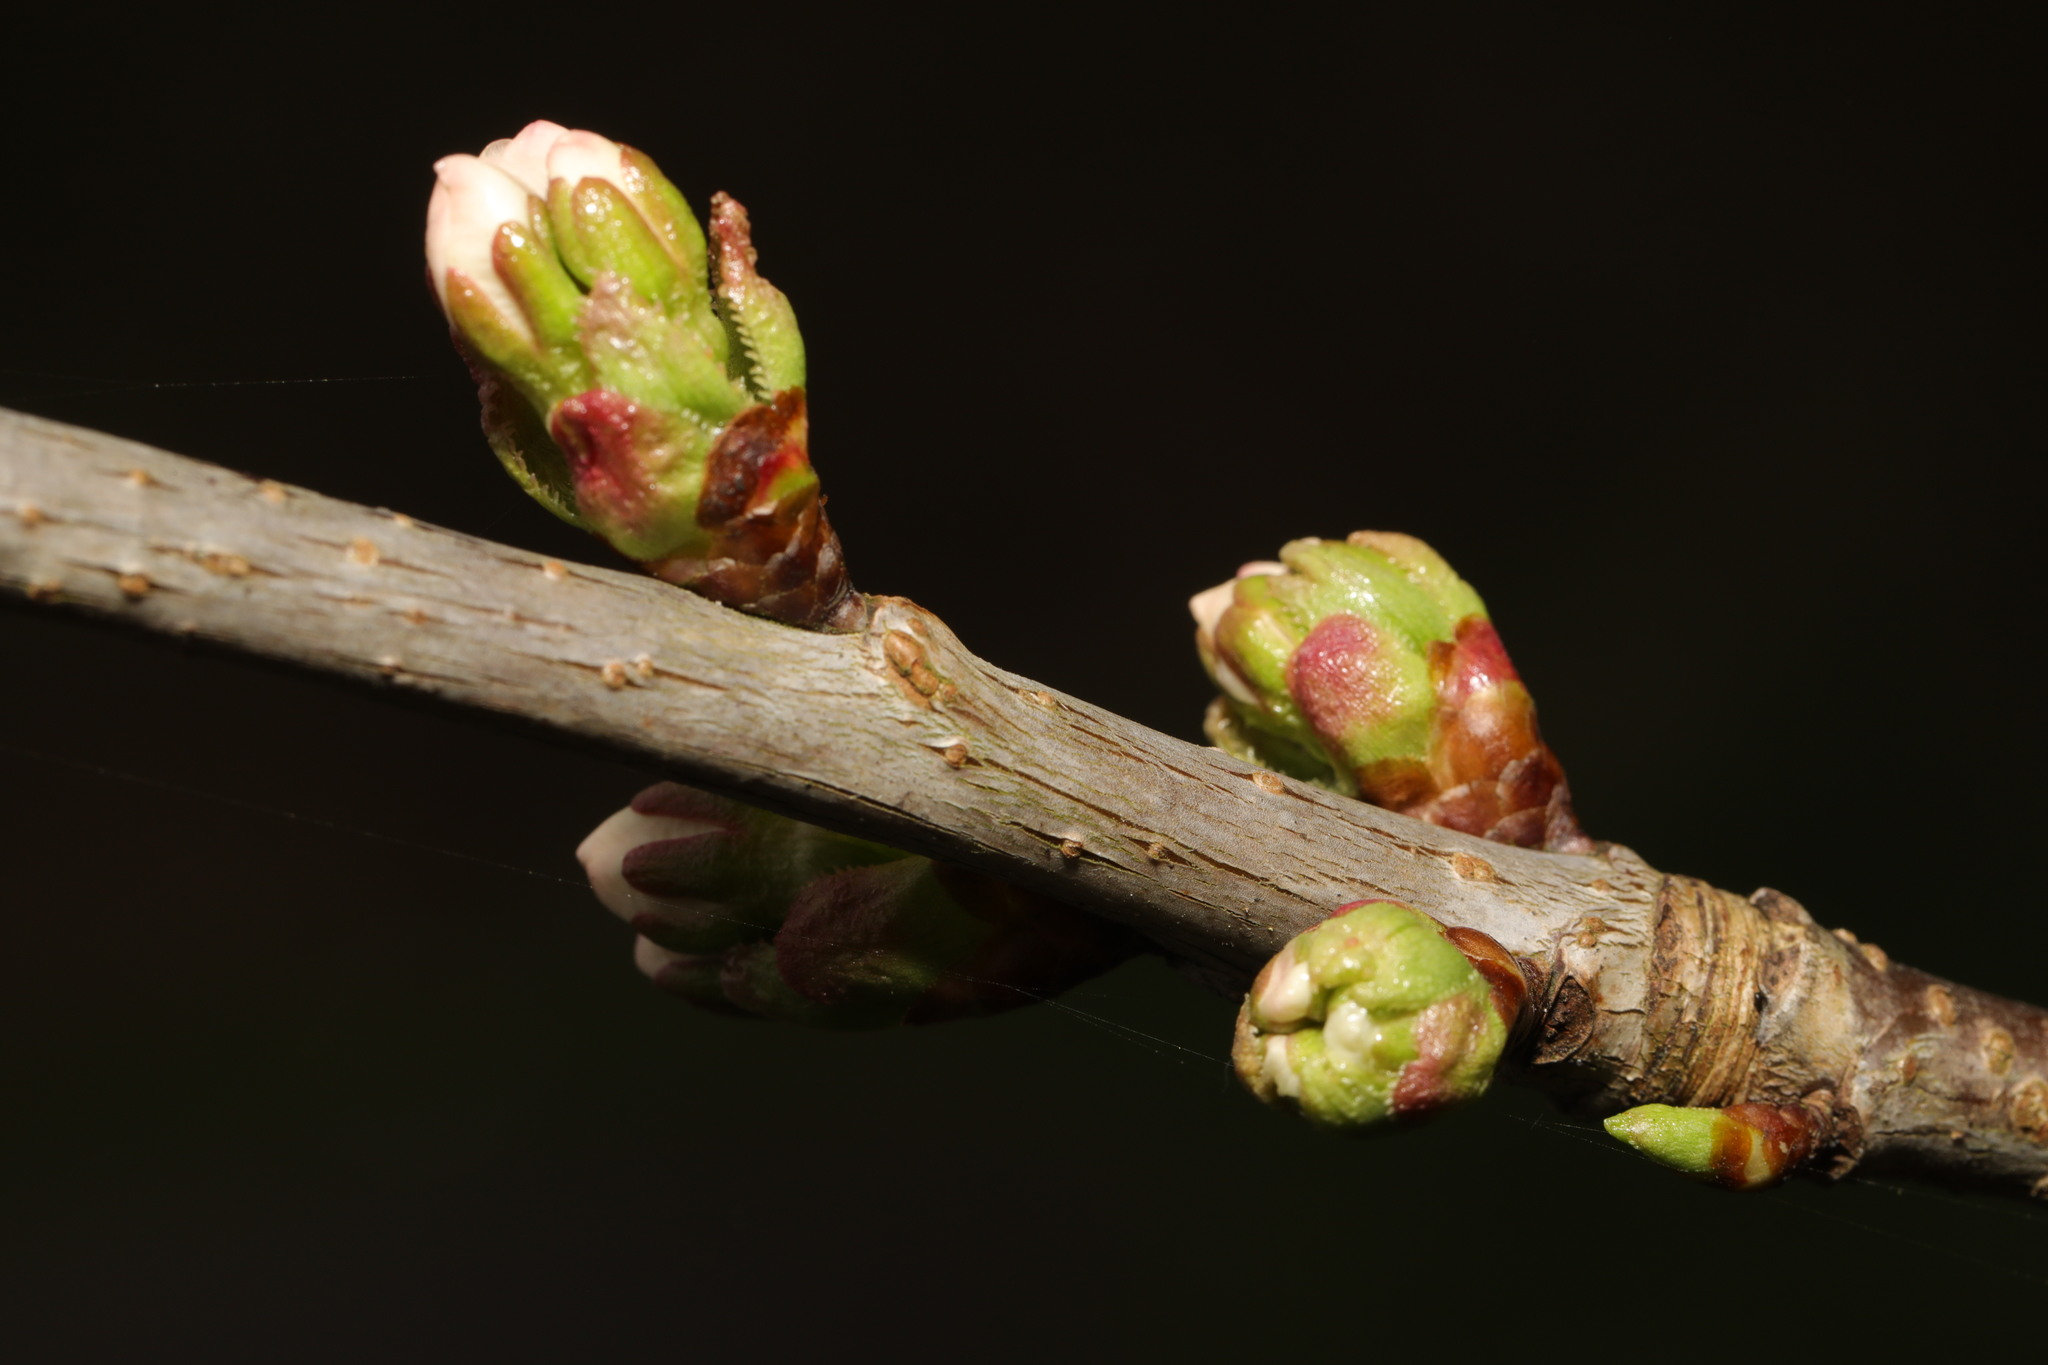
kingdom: Plantae
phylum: Tracheophyta
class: Magnoliopsida
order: Rosales
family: Rosaceae
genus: Prunus
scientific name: Prunus avium
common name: Sweet cherry
